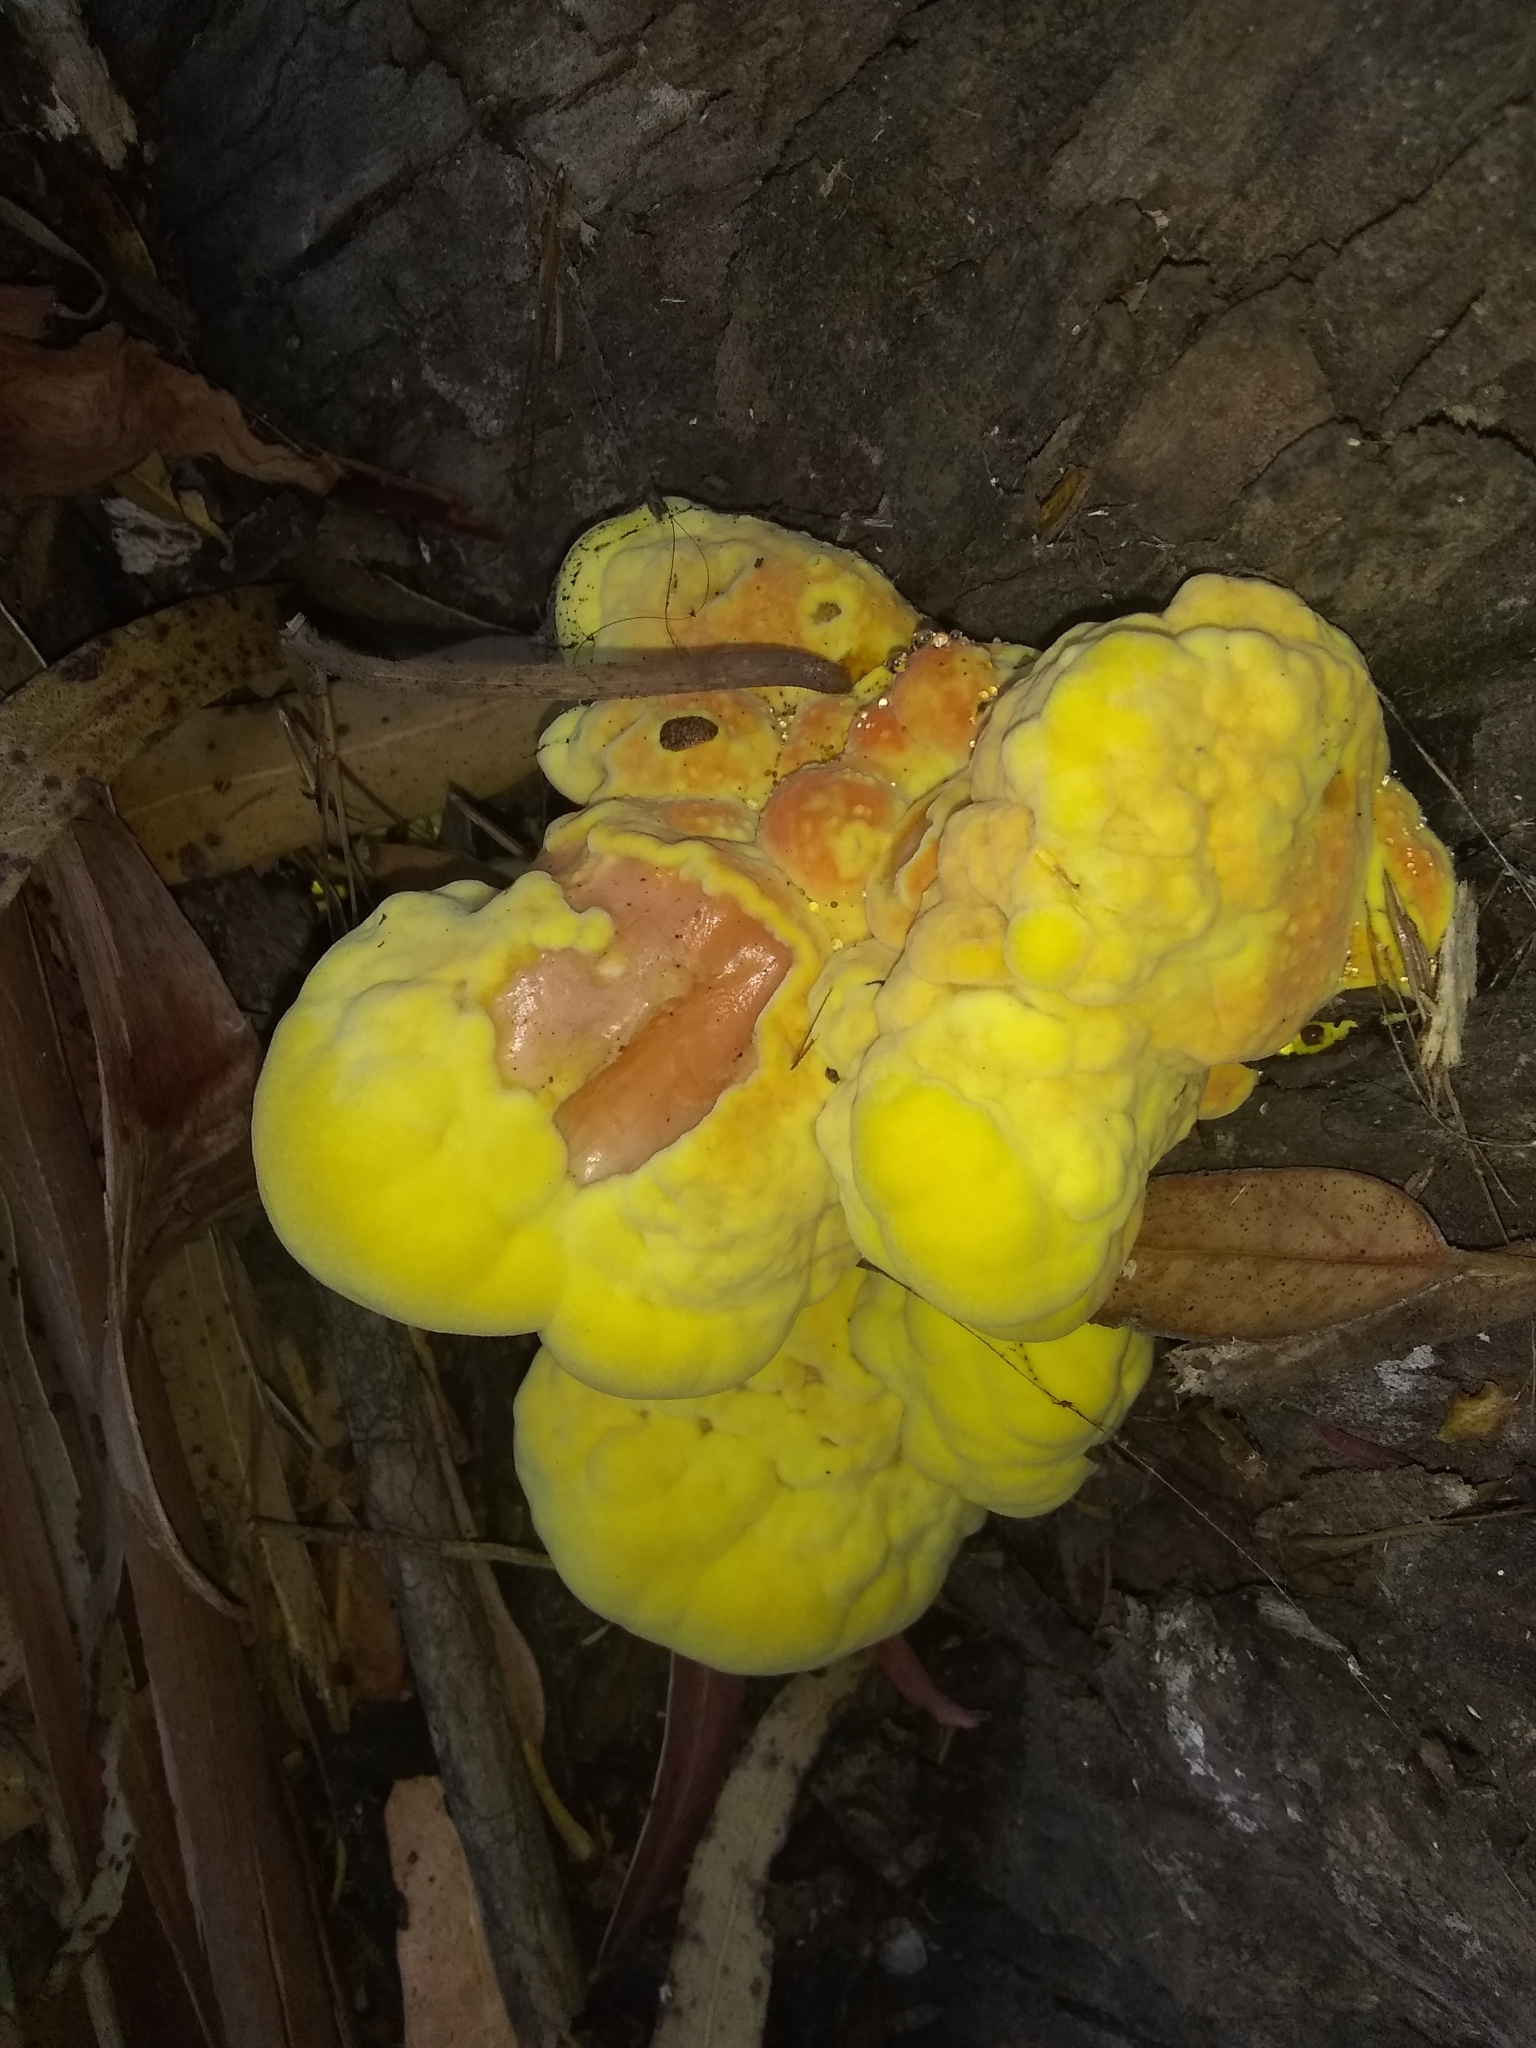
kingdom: Fungi
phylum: Basidiomycota
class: Agaricomycetes
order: Polyporales
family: Laetiporaceae
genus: Laetiporus
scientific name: Laetiporus gilbertsonii
